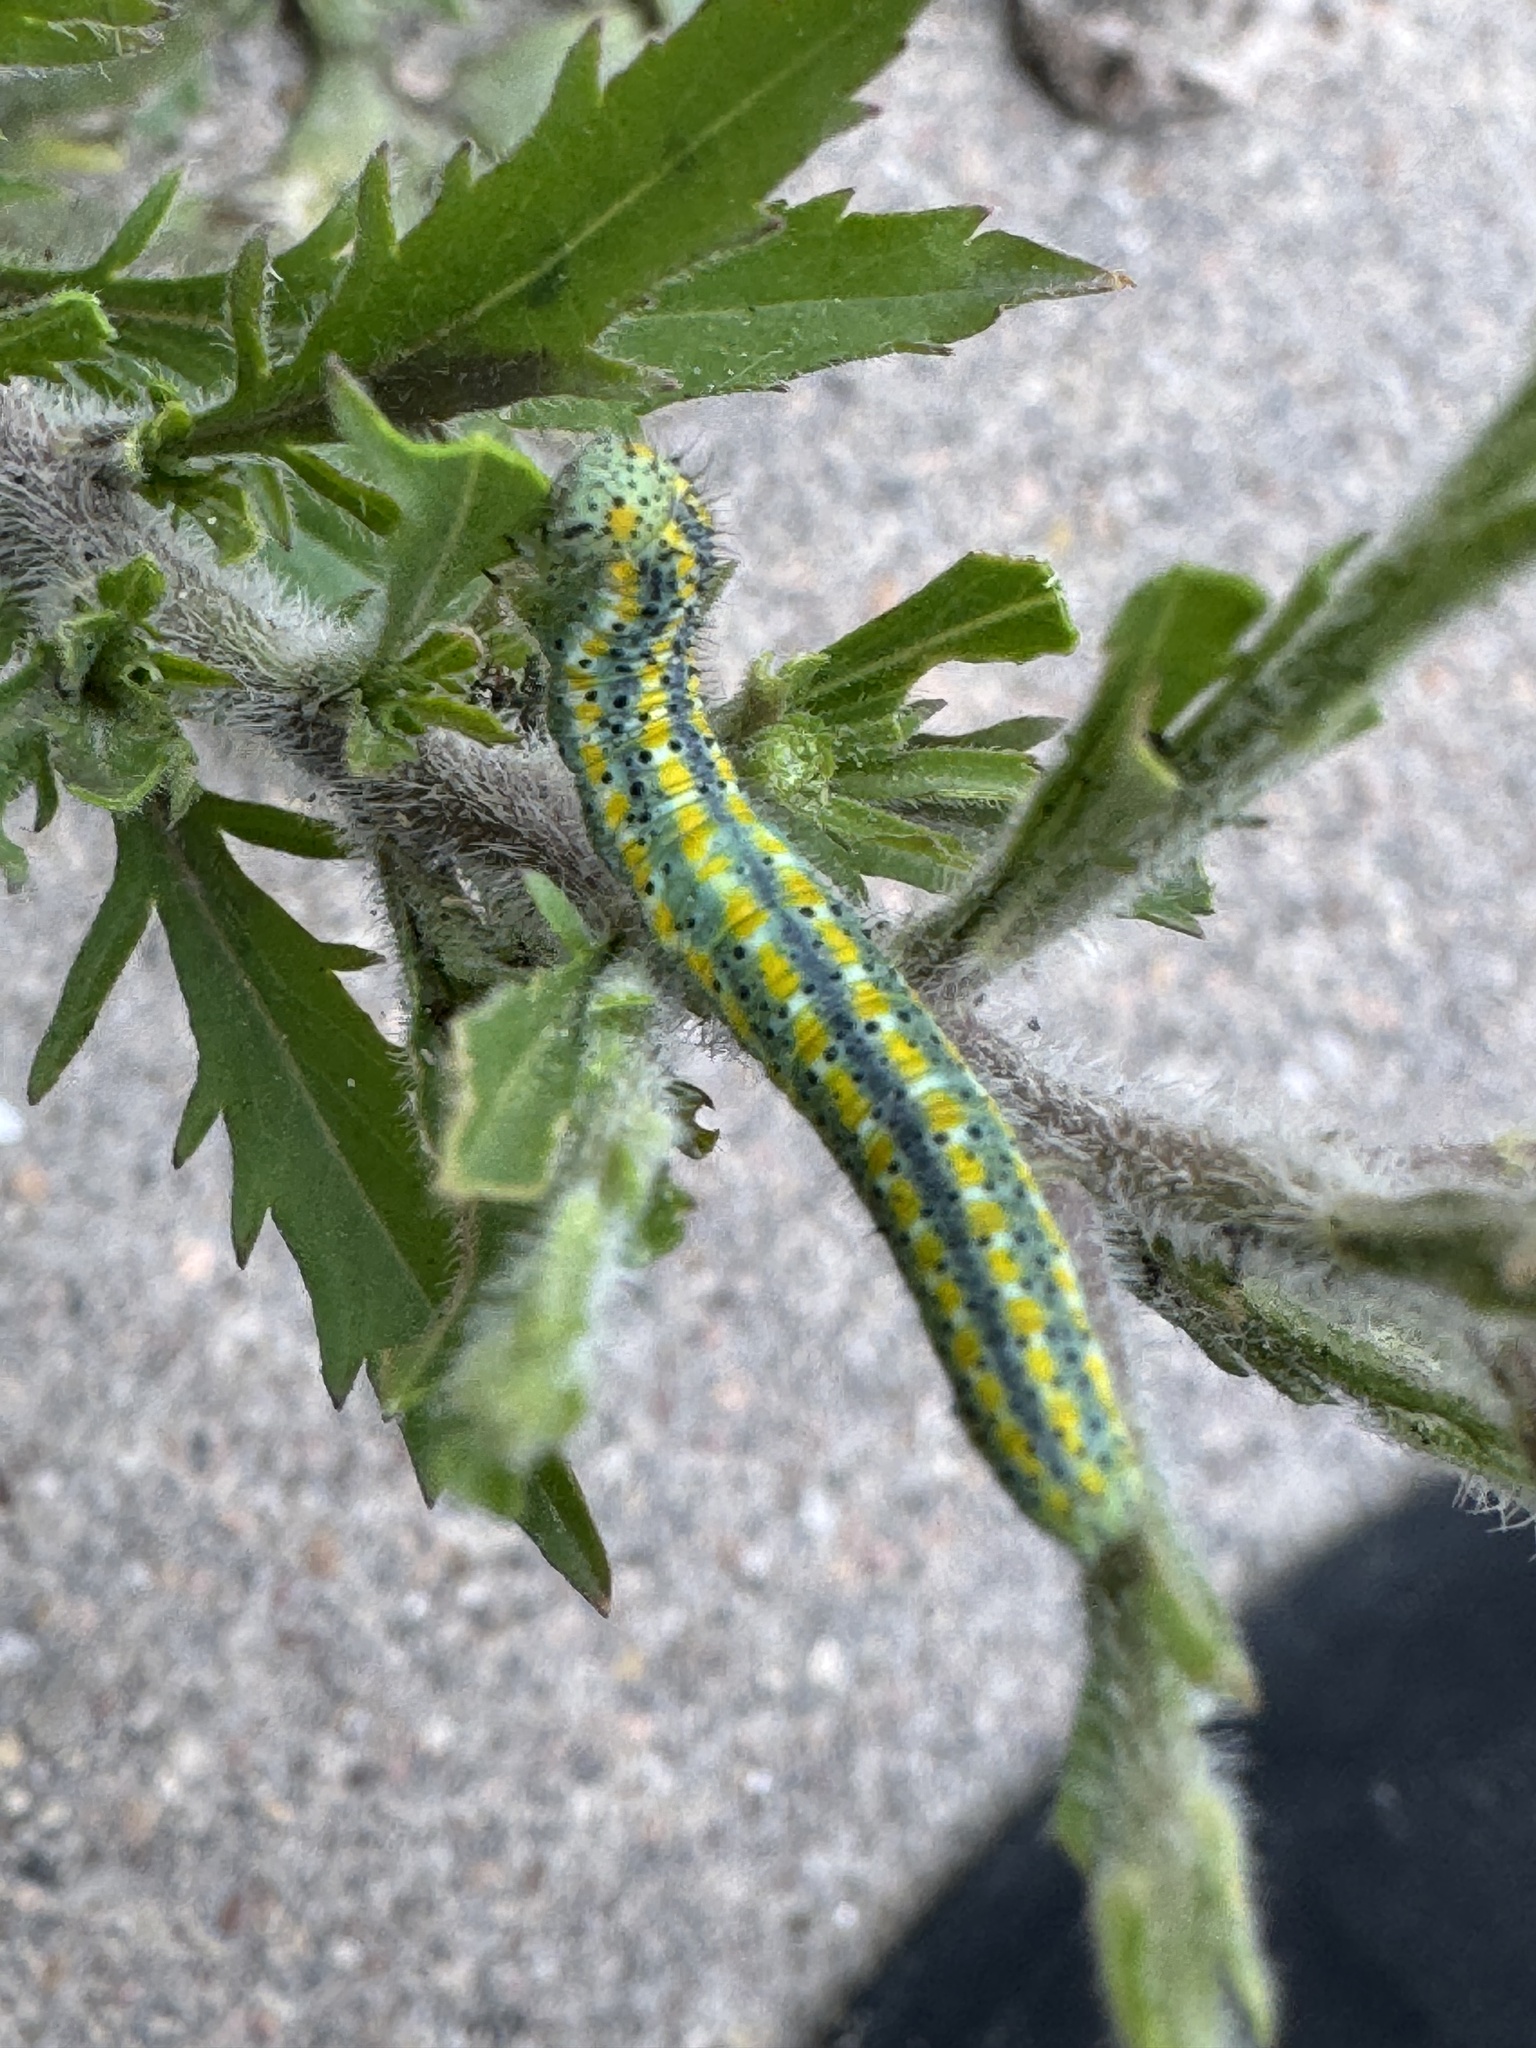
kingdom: Animalia
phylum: Arthropoda
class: Insecta
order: Lepidoptera
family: Pieridae
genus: Pontia
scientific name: Pontia protodice
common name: Checkered white
